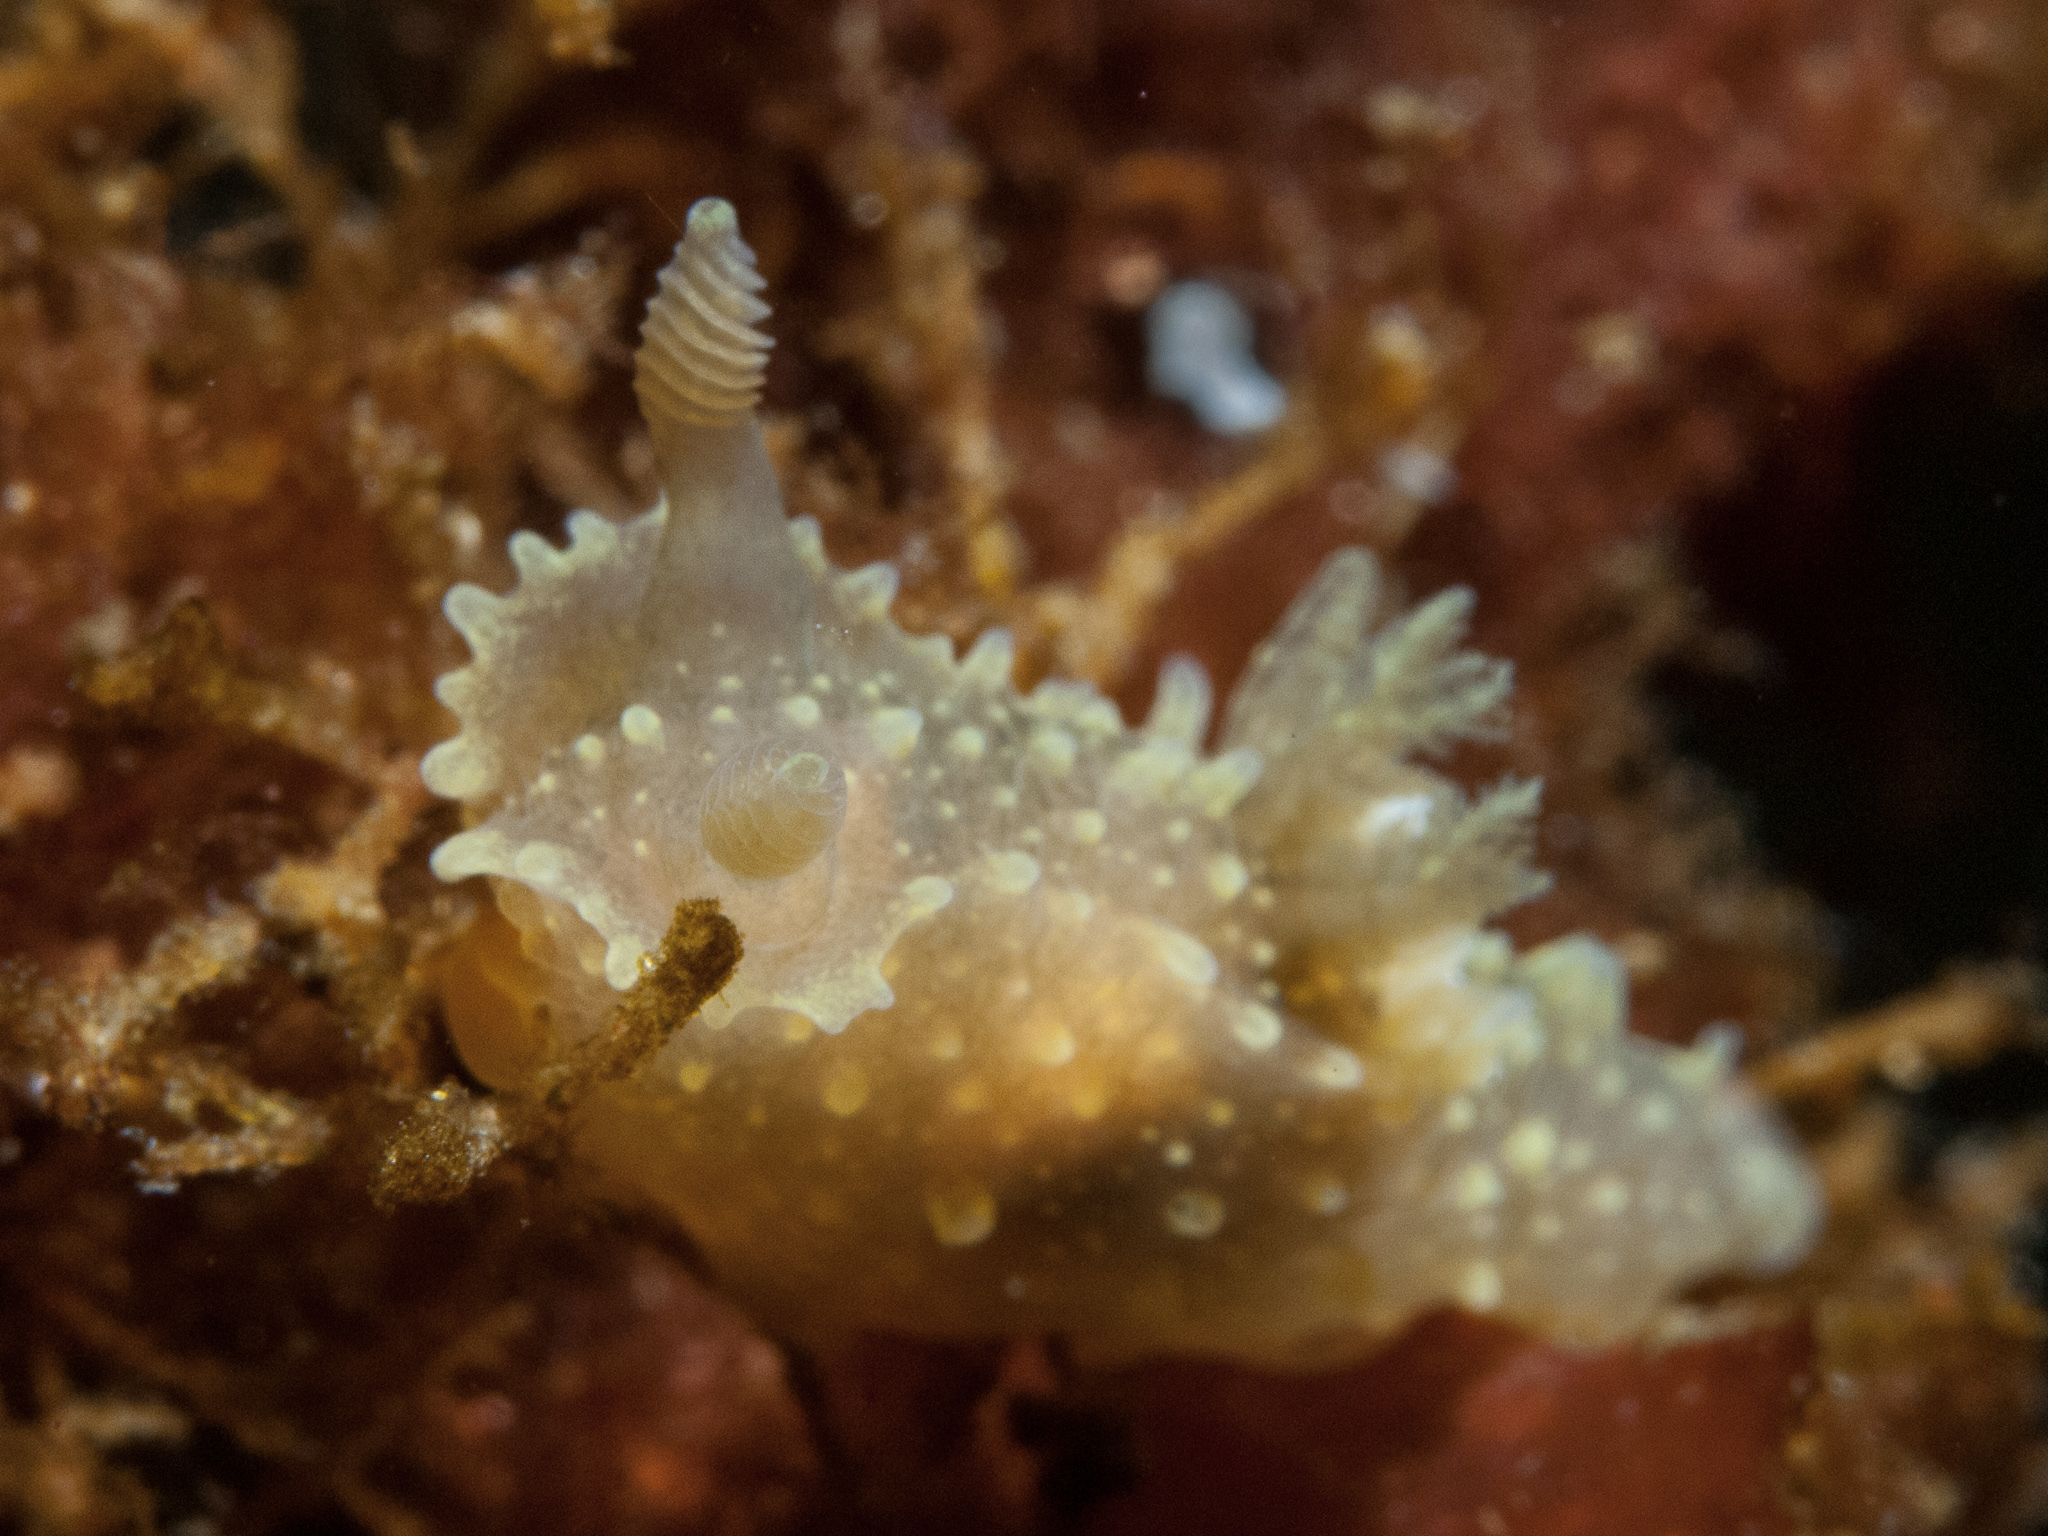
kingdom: Animalia
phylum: Mollusca
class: Gastropoda
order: Nudibranchia
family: Polyceridae
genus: Palio
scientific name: Palio dubia
